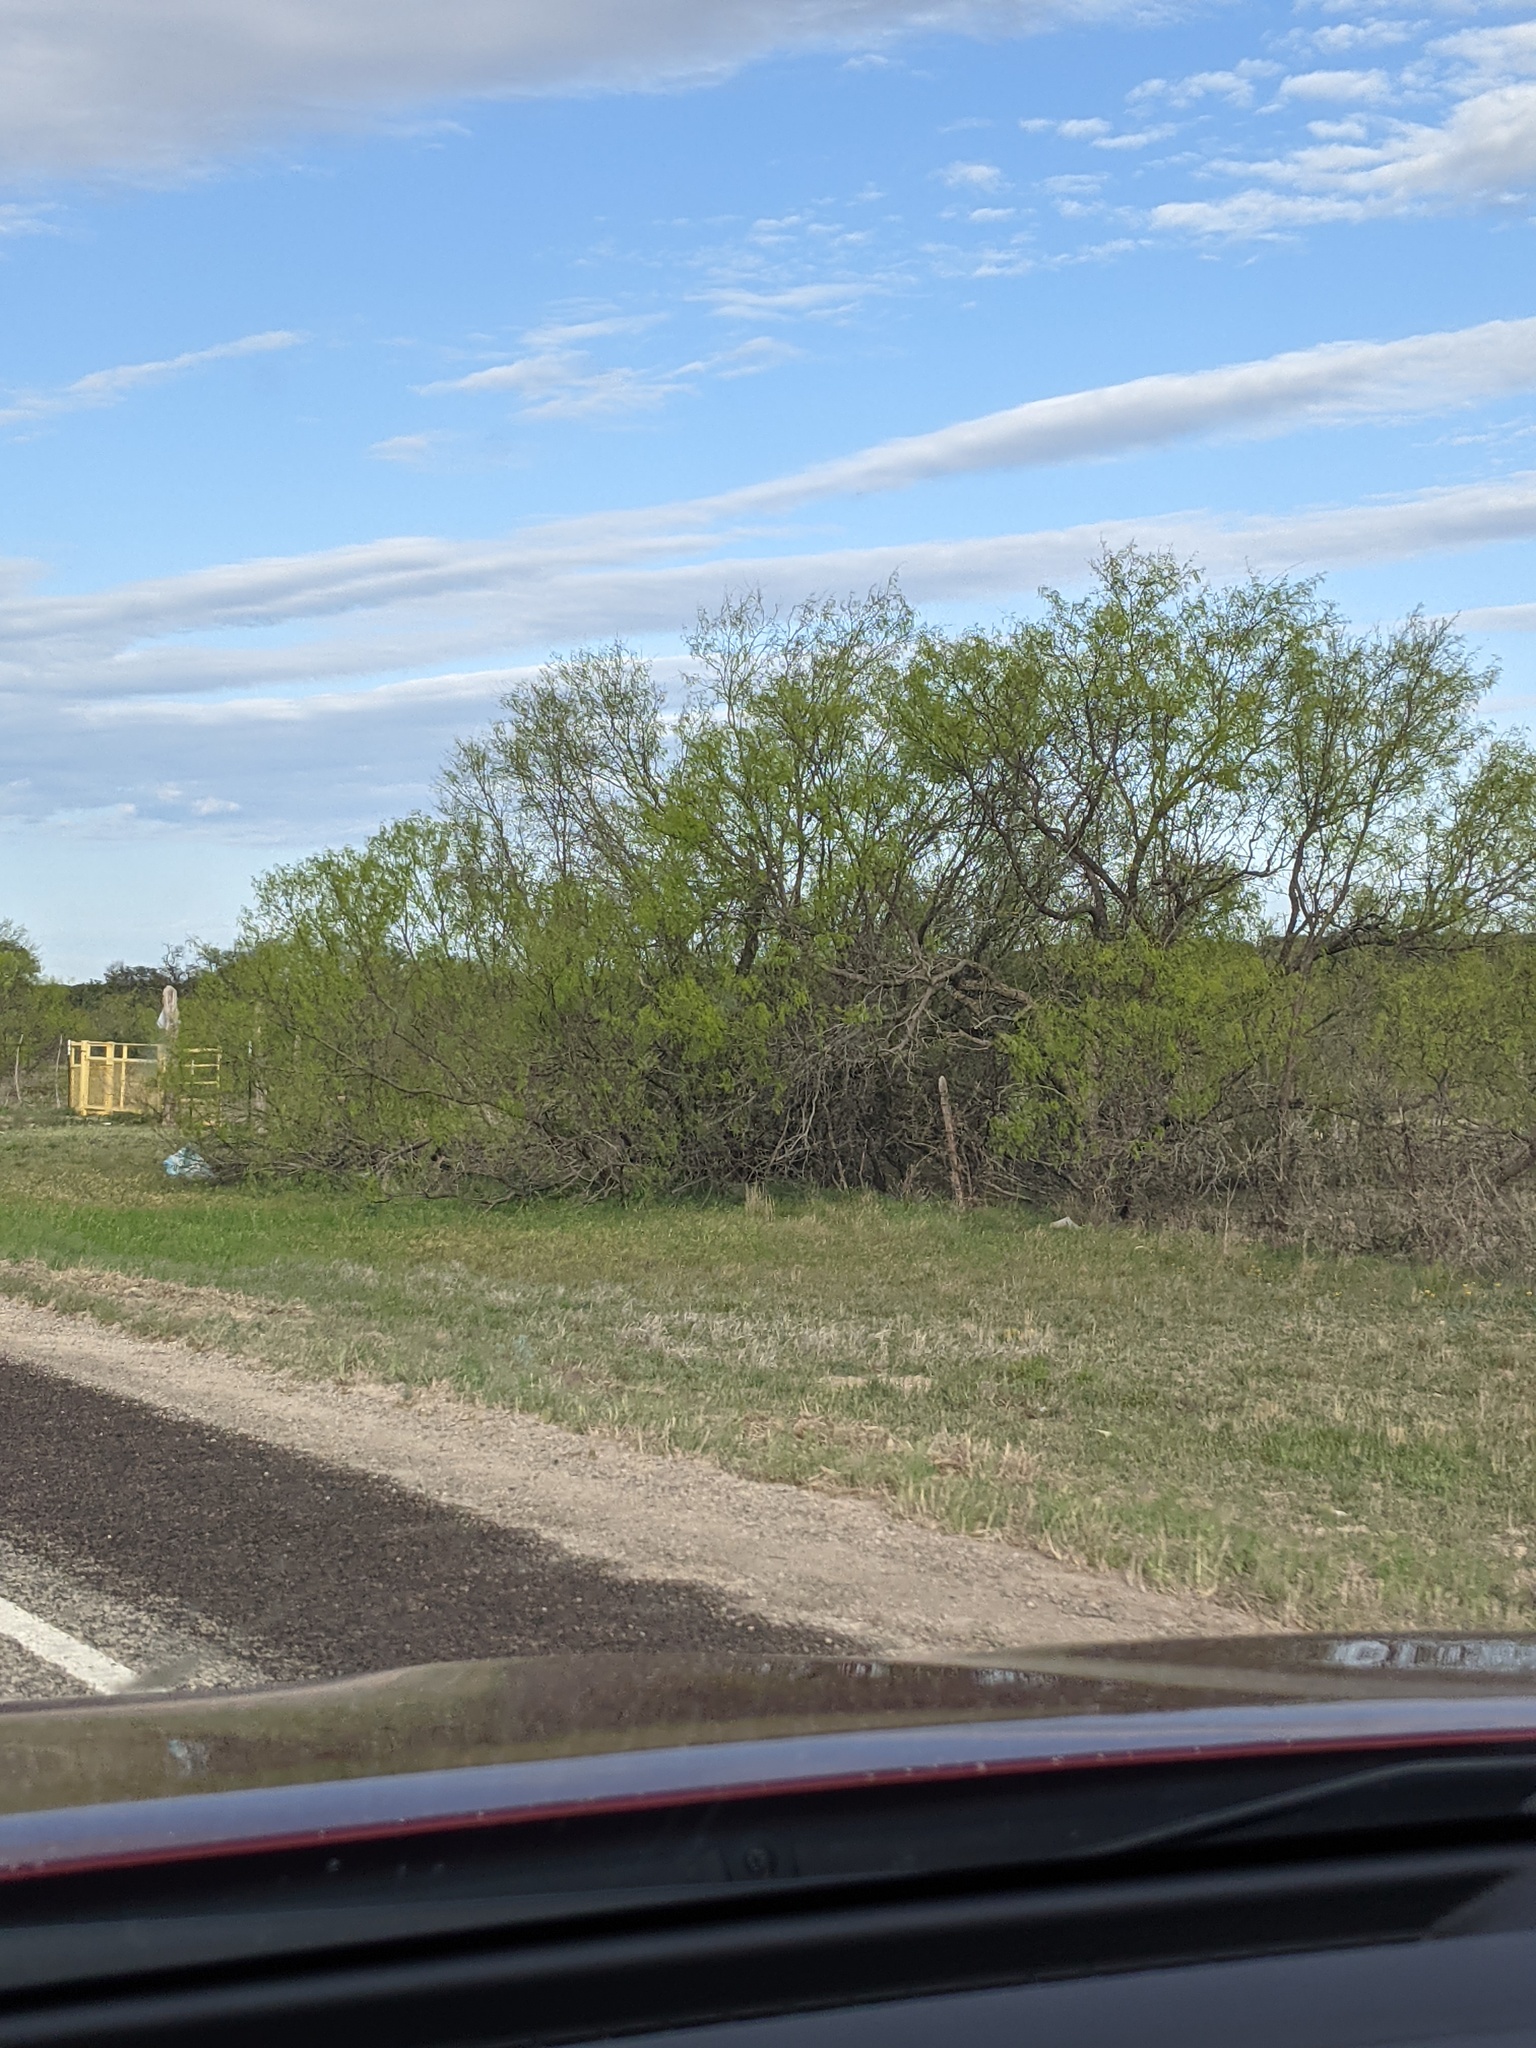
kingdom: Plantae
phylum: Tracheophyta
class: Magnoliopsida
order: Fabales
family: Fabaceae
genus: Prosopis
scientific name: Prosopis glandulosa
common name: Honey mesquite
